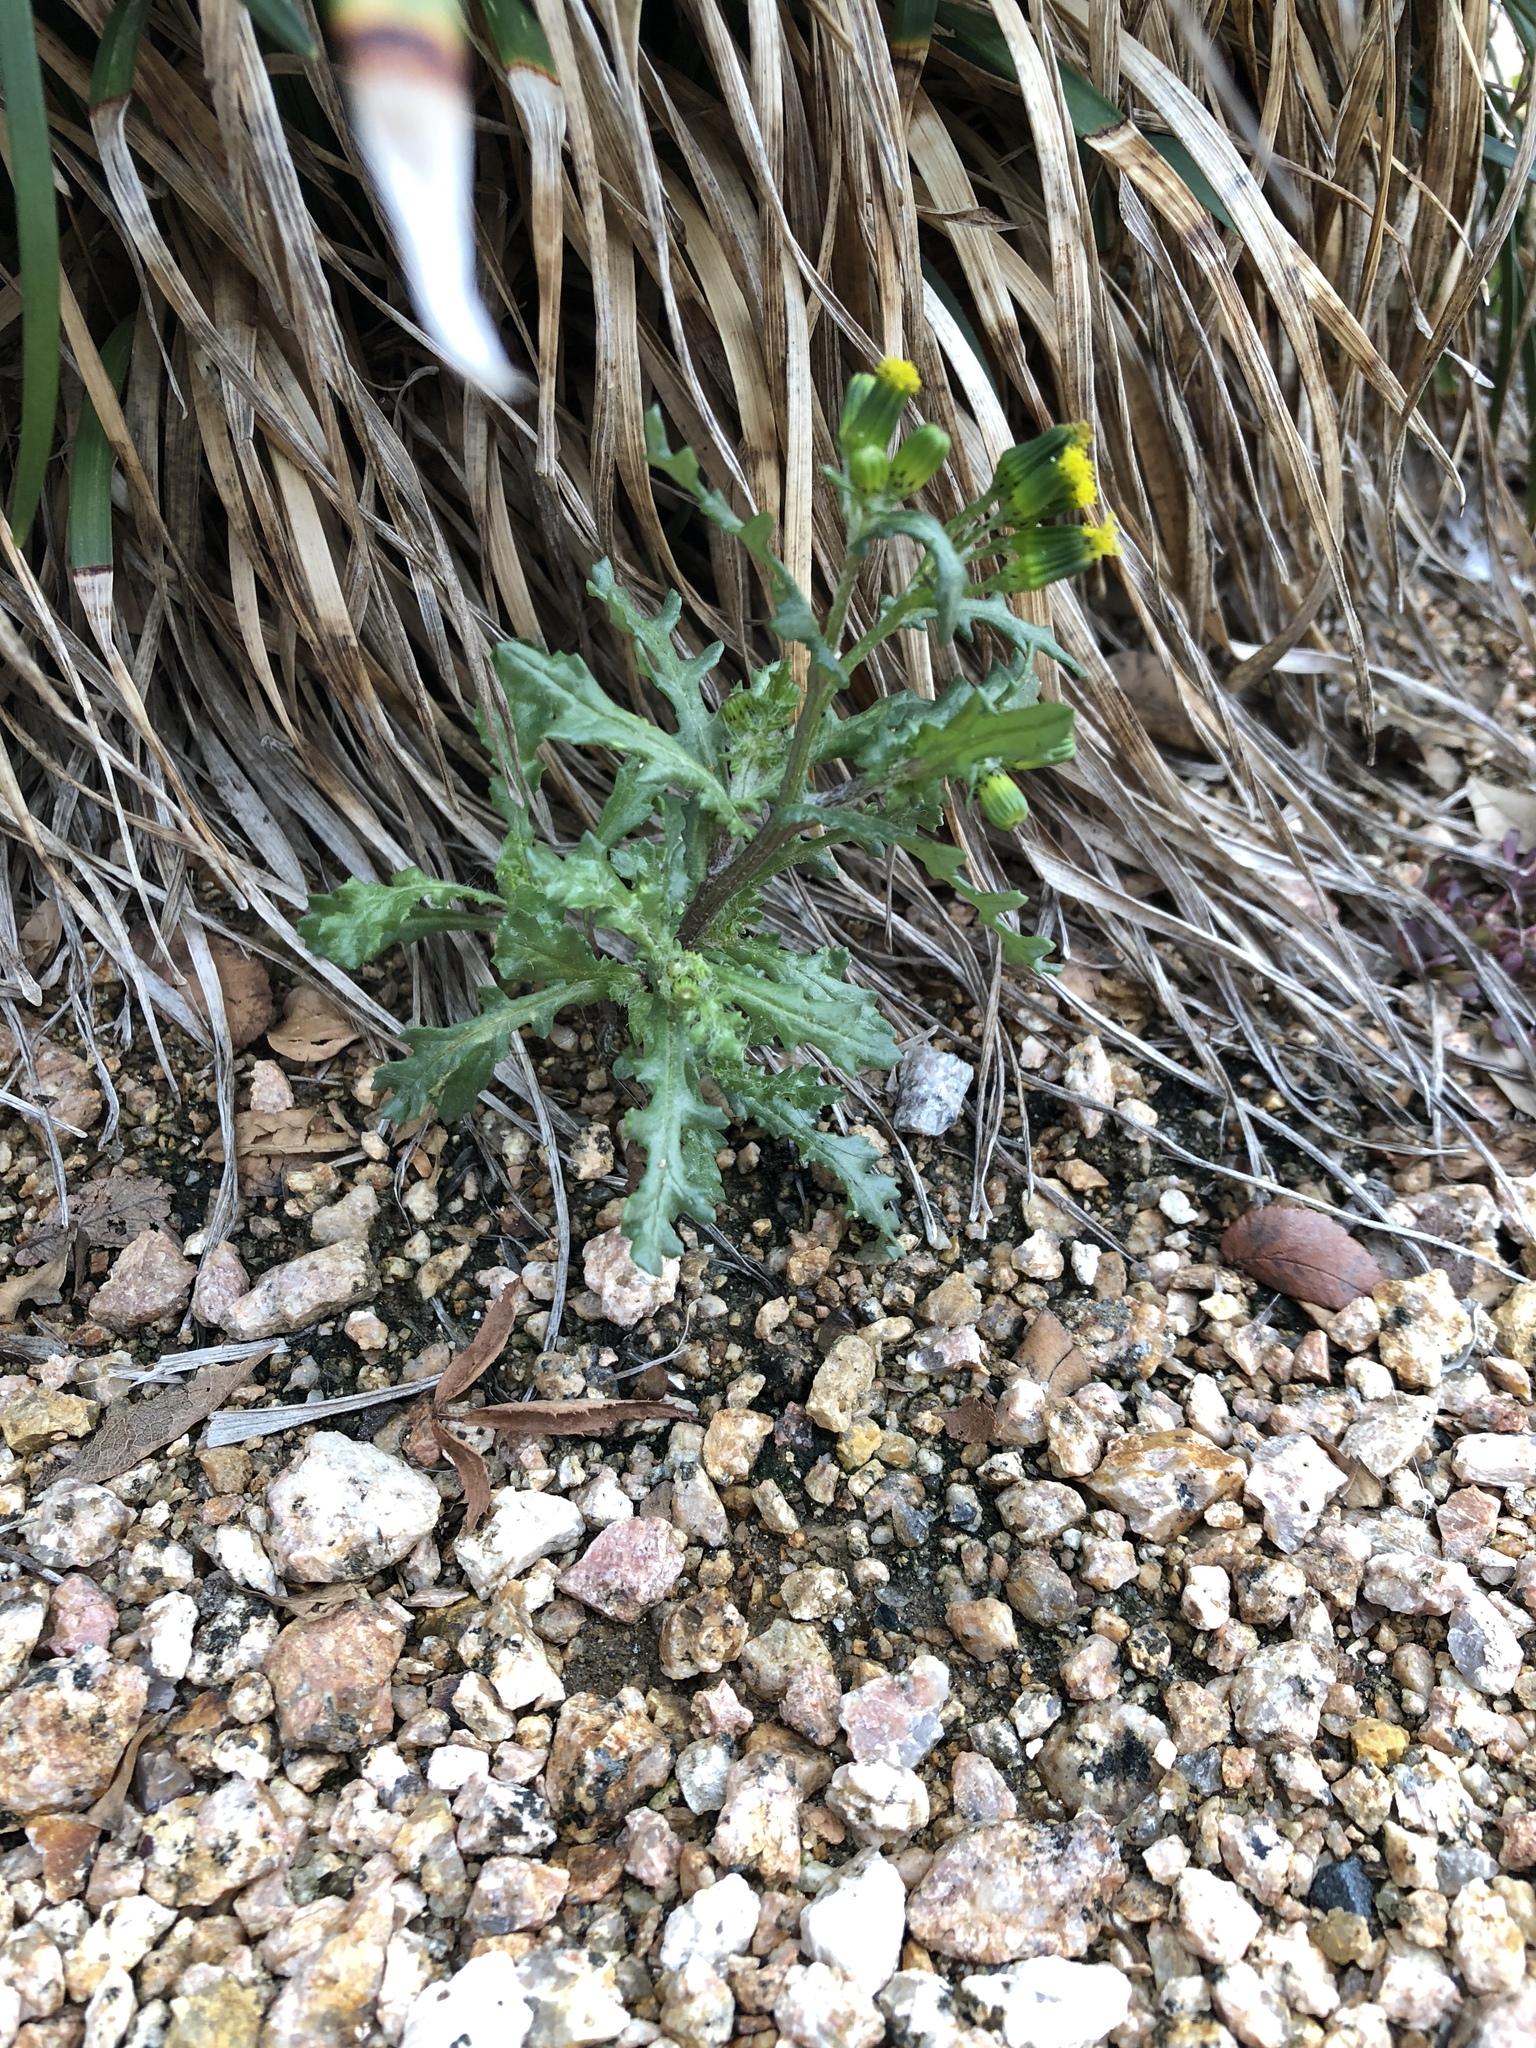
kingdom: Plantae
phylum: Tracheophyta
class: Magnoliopsida
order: Asterales
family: Asteraceae
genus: Senecio
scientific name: Senecio vulgaris
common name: Old-man-in-the-spring
